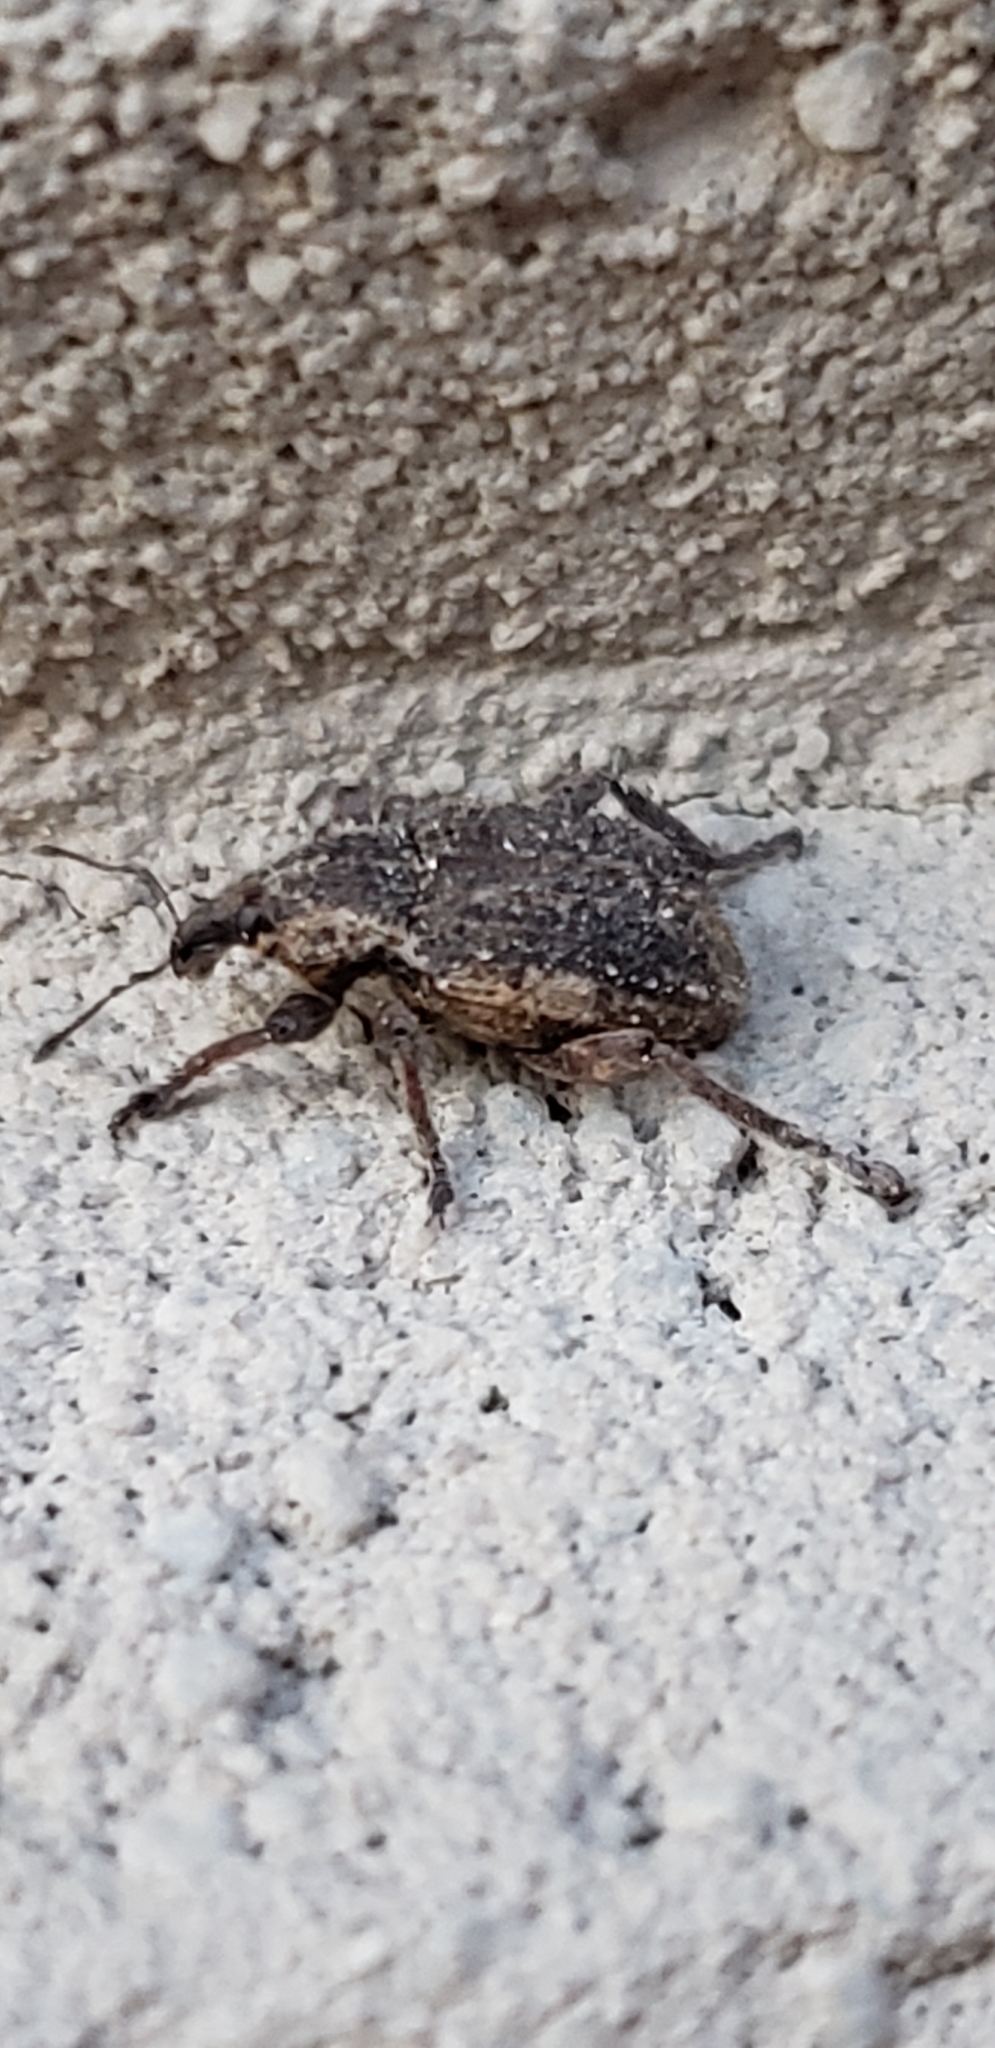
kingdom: Animalia
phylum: Arthropoda
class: Insecta
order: Coleoptera
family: Curculionidae
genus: Brachypera
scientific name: Brachypera zoilus
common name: Clover leaf weevil
